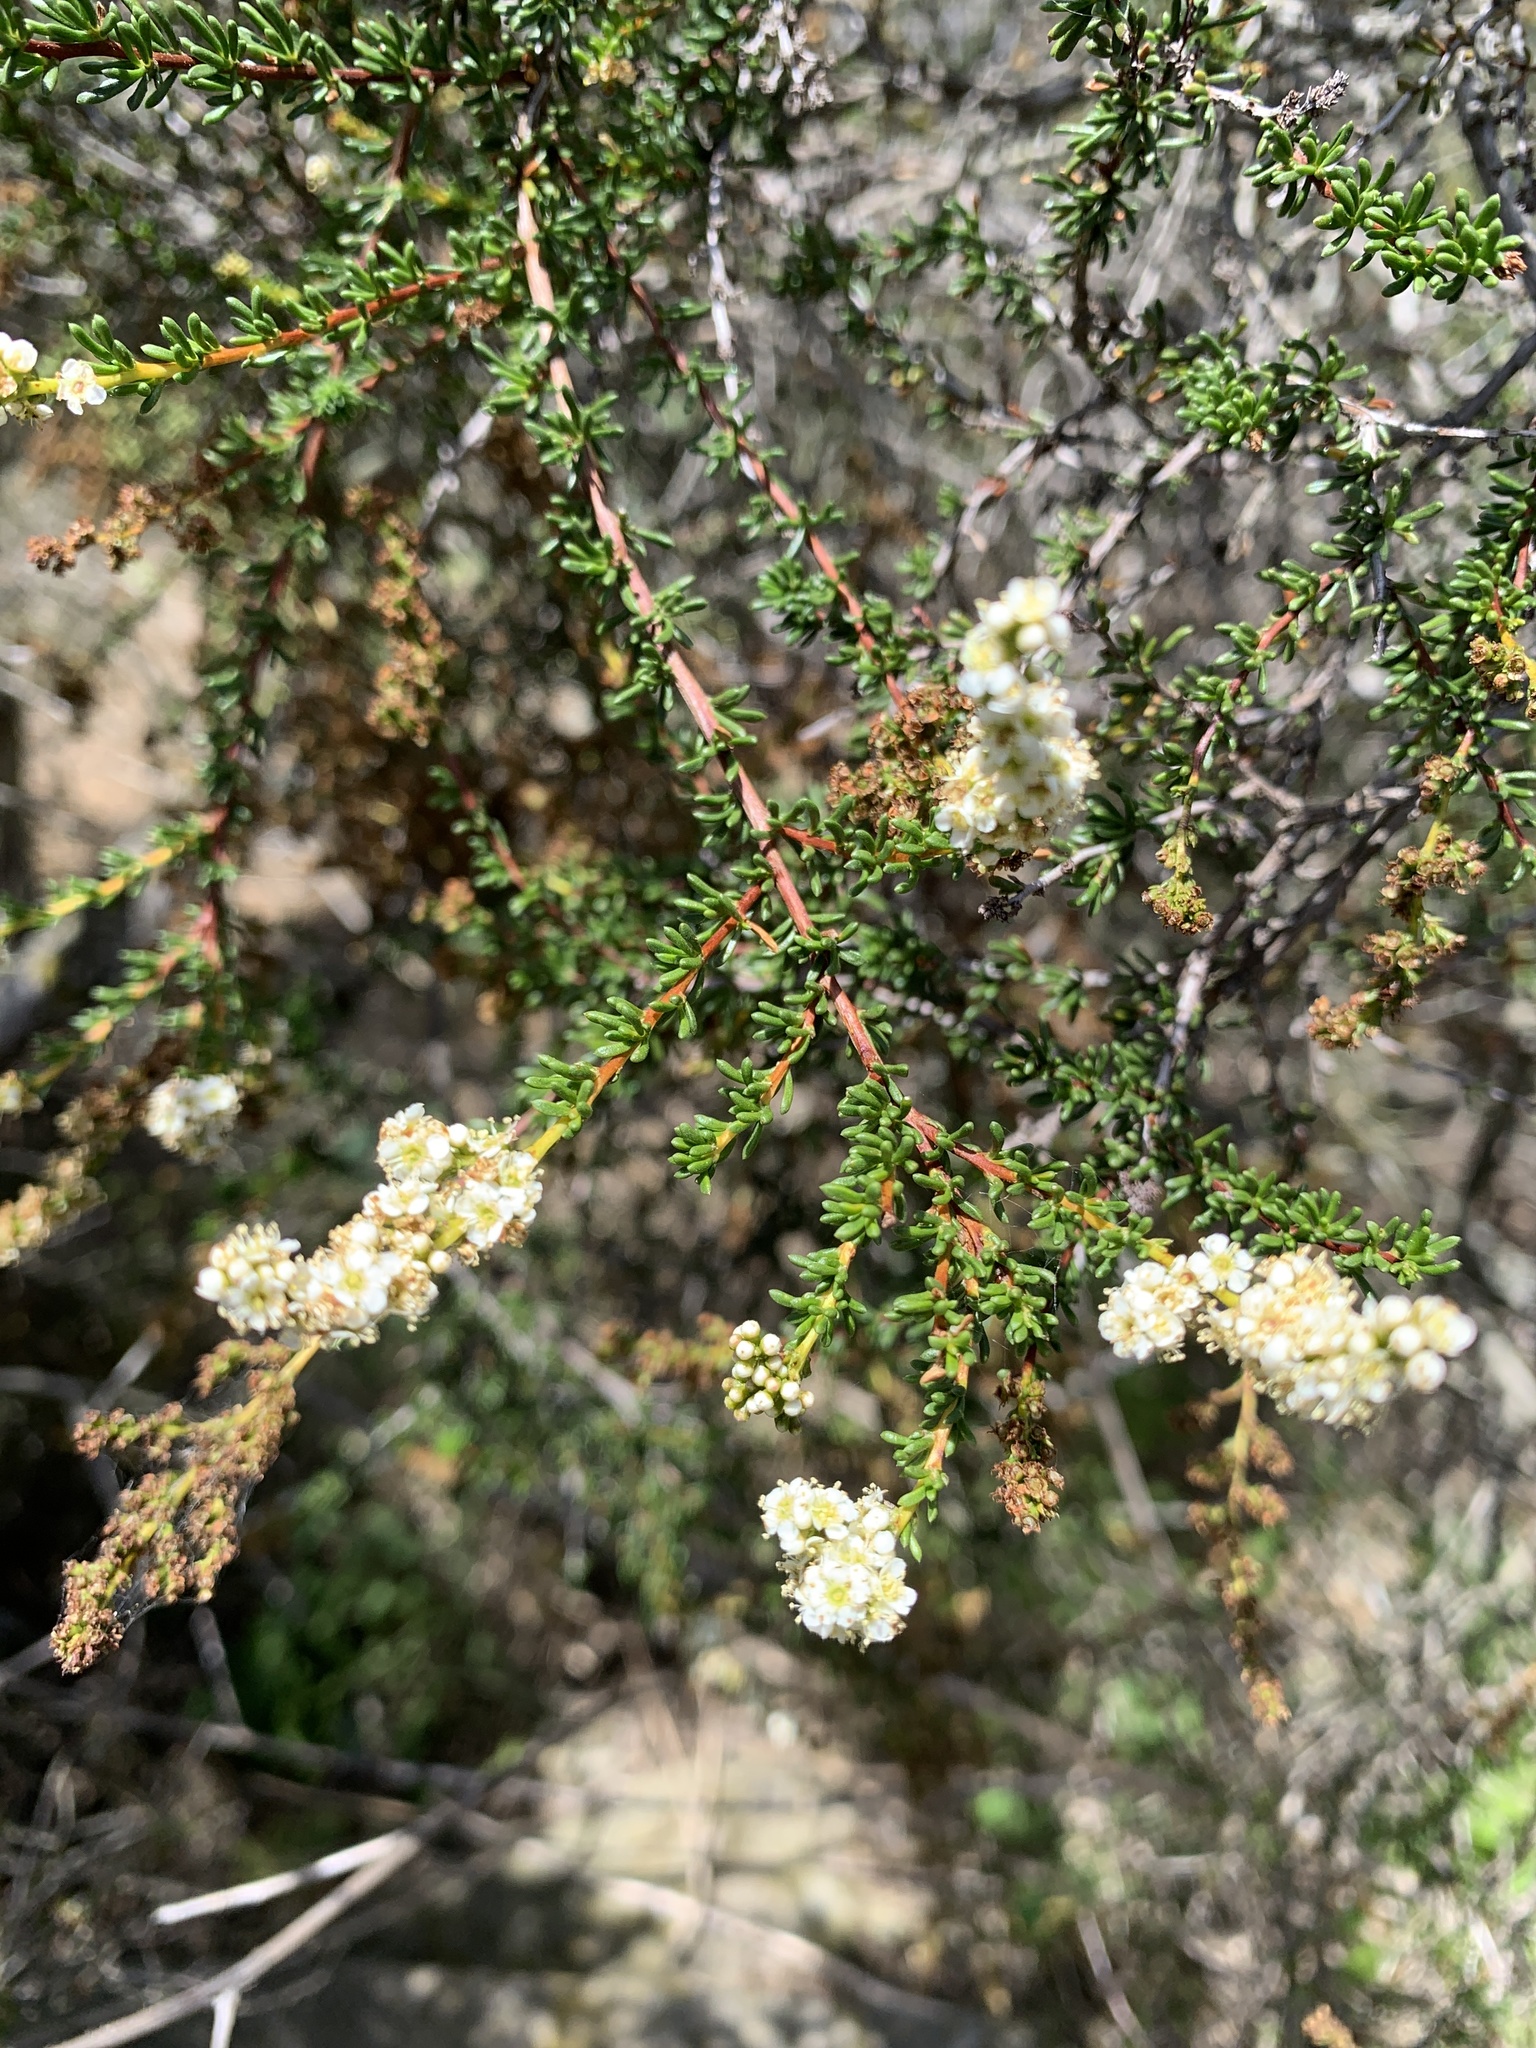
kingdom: Plantae
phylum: Tracheophyta
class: Magnoliopsida
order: Rosales
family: Rosaceae
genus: Adenostoma
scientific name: Adenostoma fasciculatum
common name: Chamise
